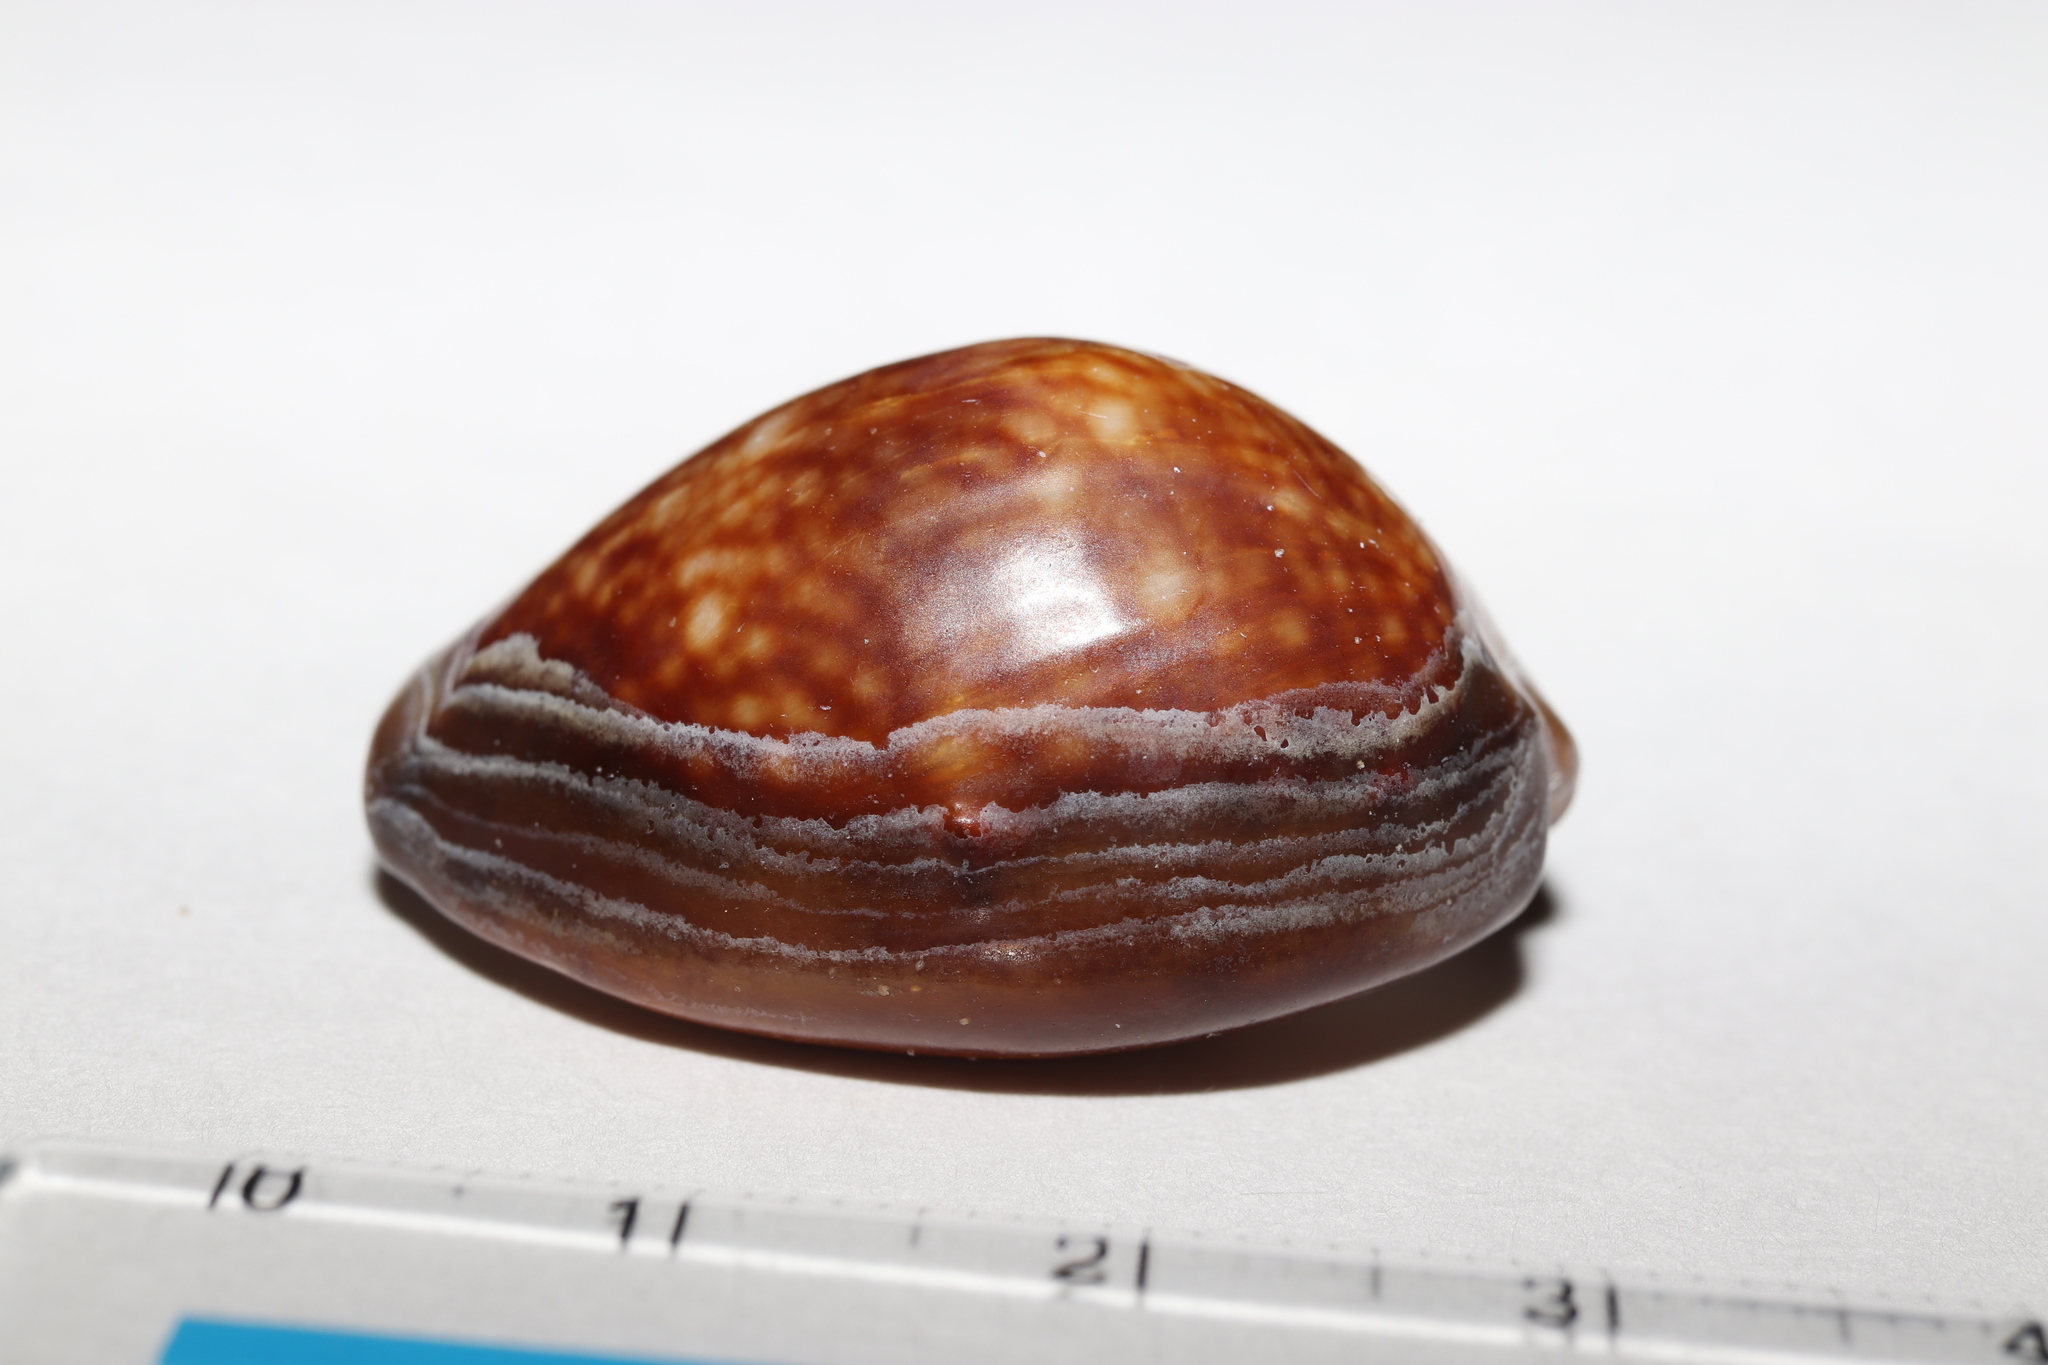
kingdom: Animalia
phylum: Mollusca
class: Gastropoda
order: Littorinimorpha
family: Cypraeidae
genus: Monetaria
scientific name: Monetaria caputserpentis
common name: Serpent's head cowrie
